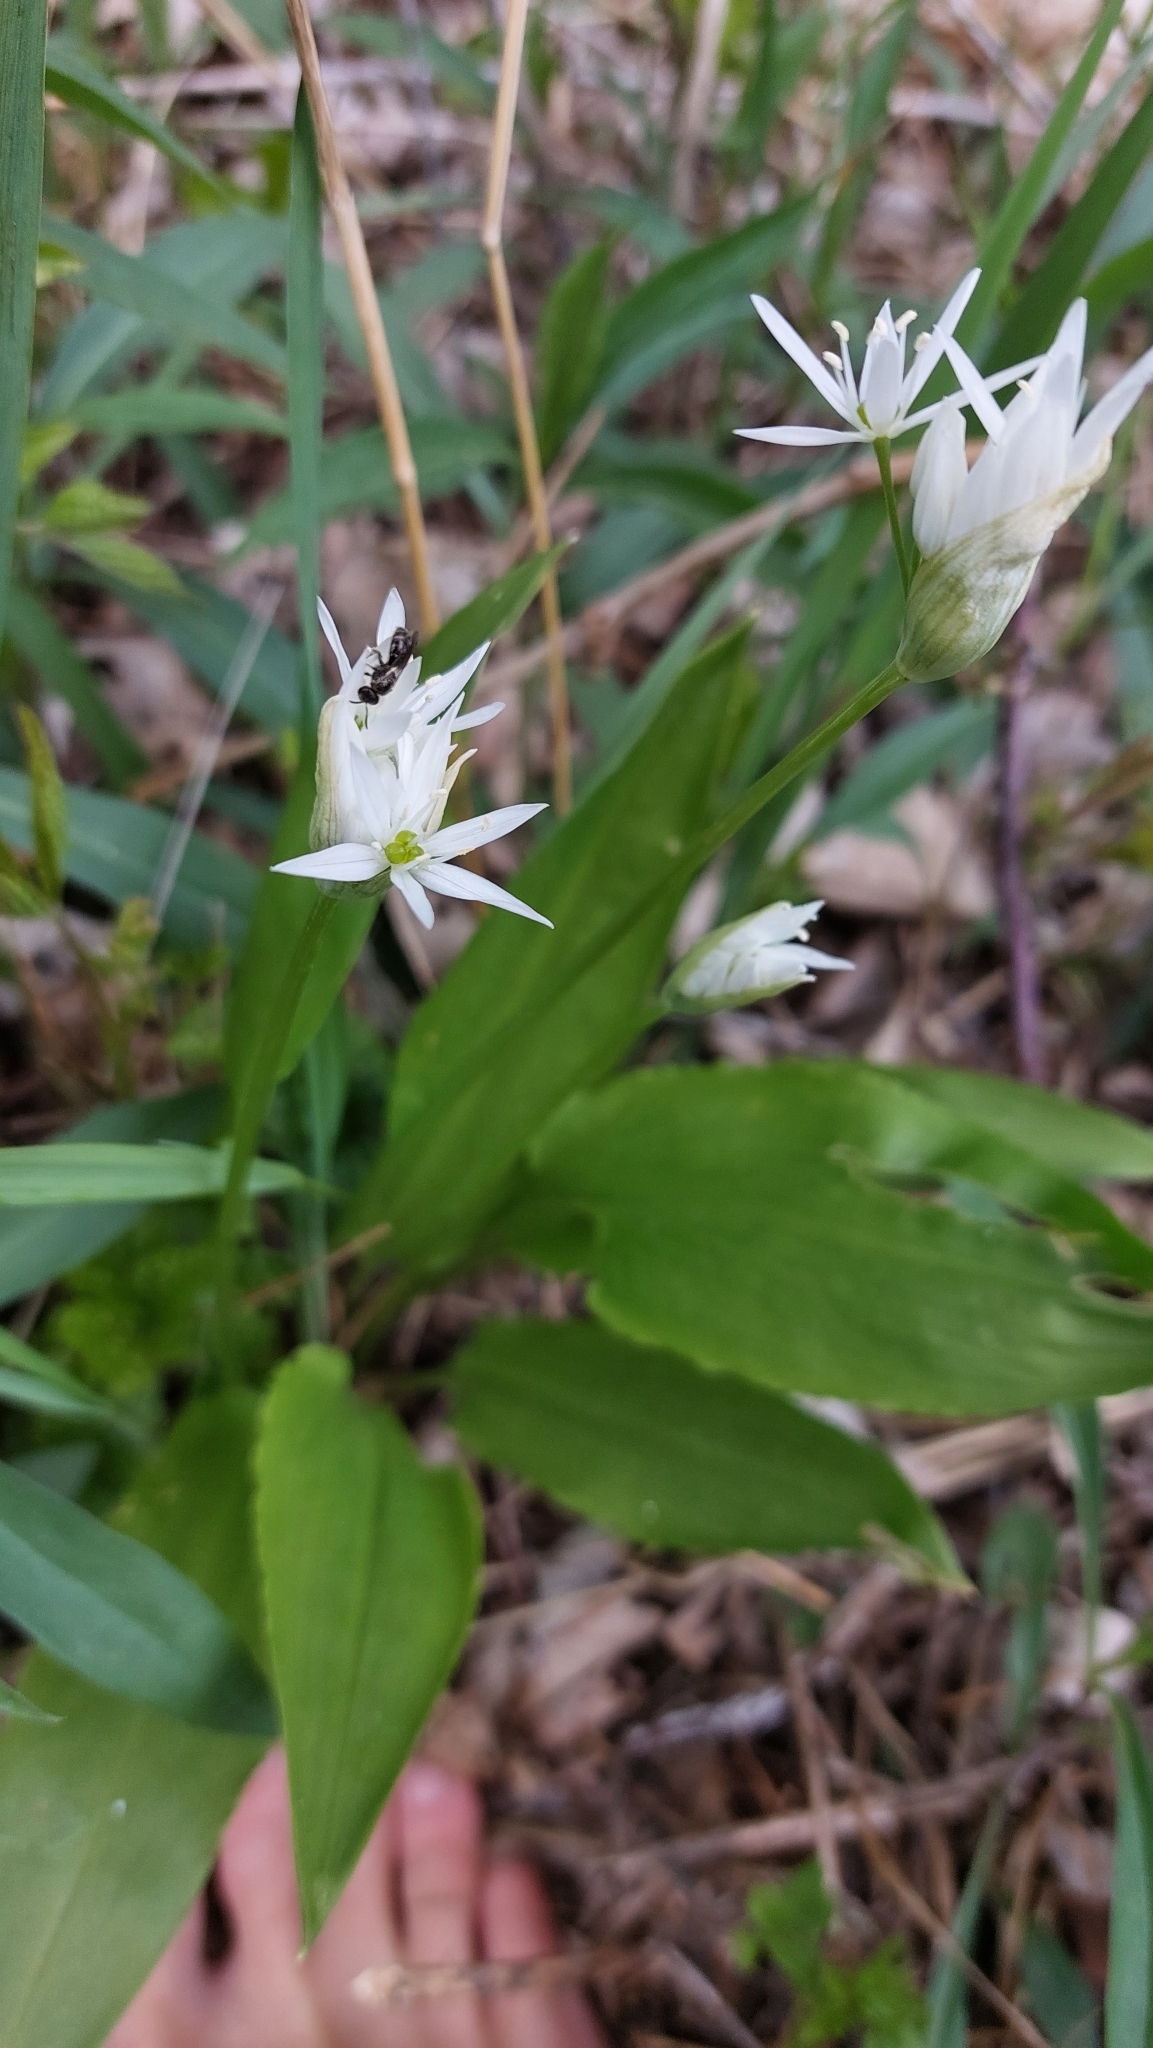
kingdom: Plantae
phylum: Tracheophyta
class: Liliopsida
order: Asparagales
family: Amaryllidaceae
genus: Allium
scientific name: Allium ursinum
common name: Ramsons
